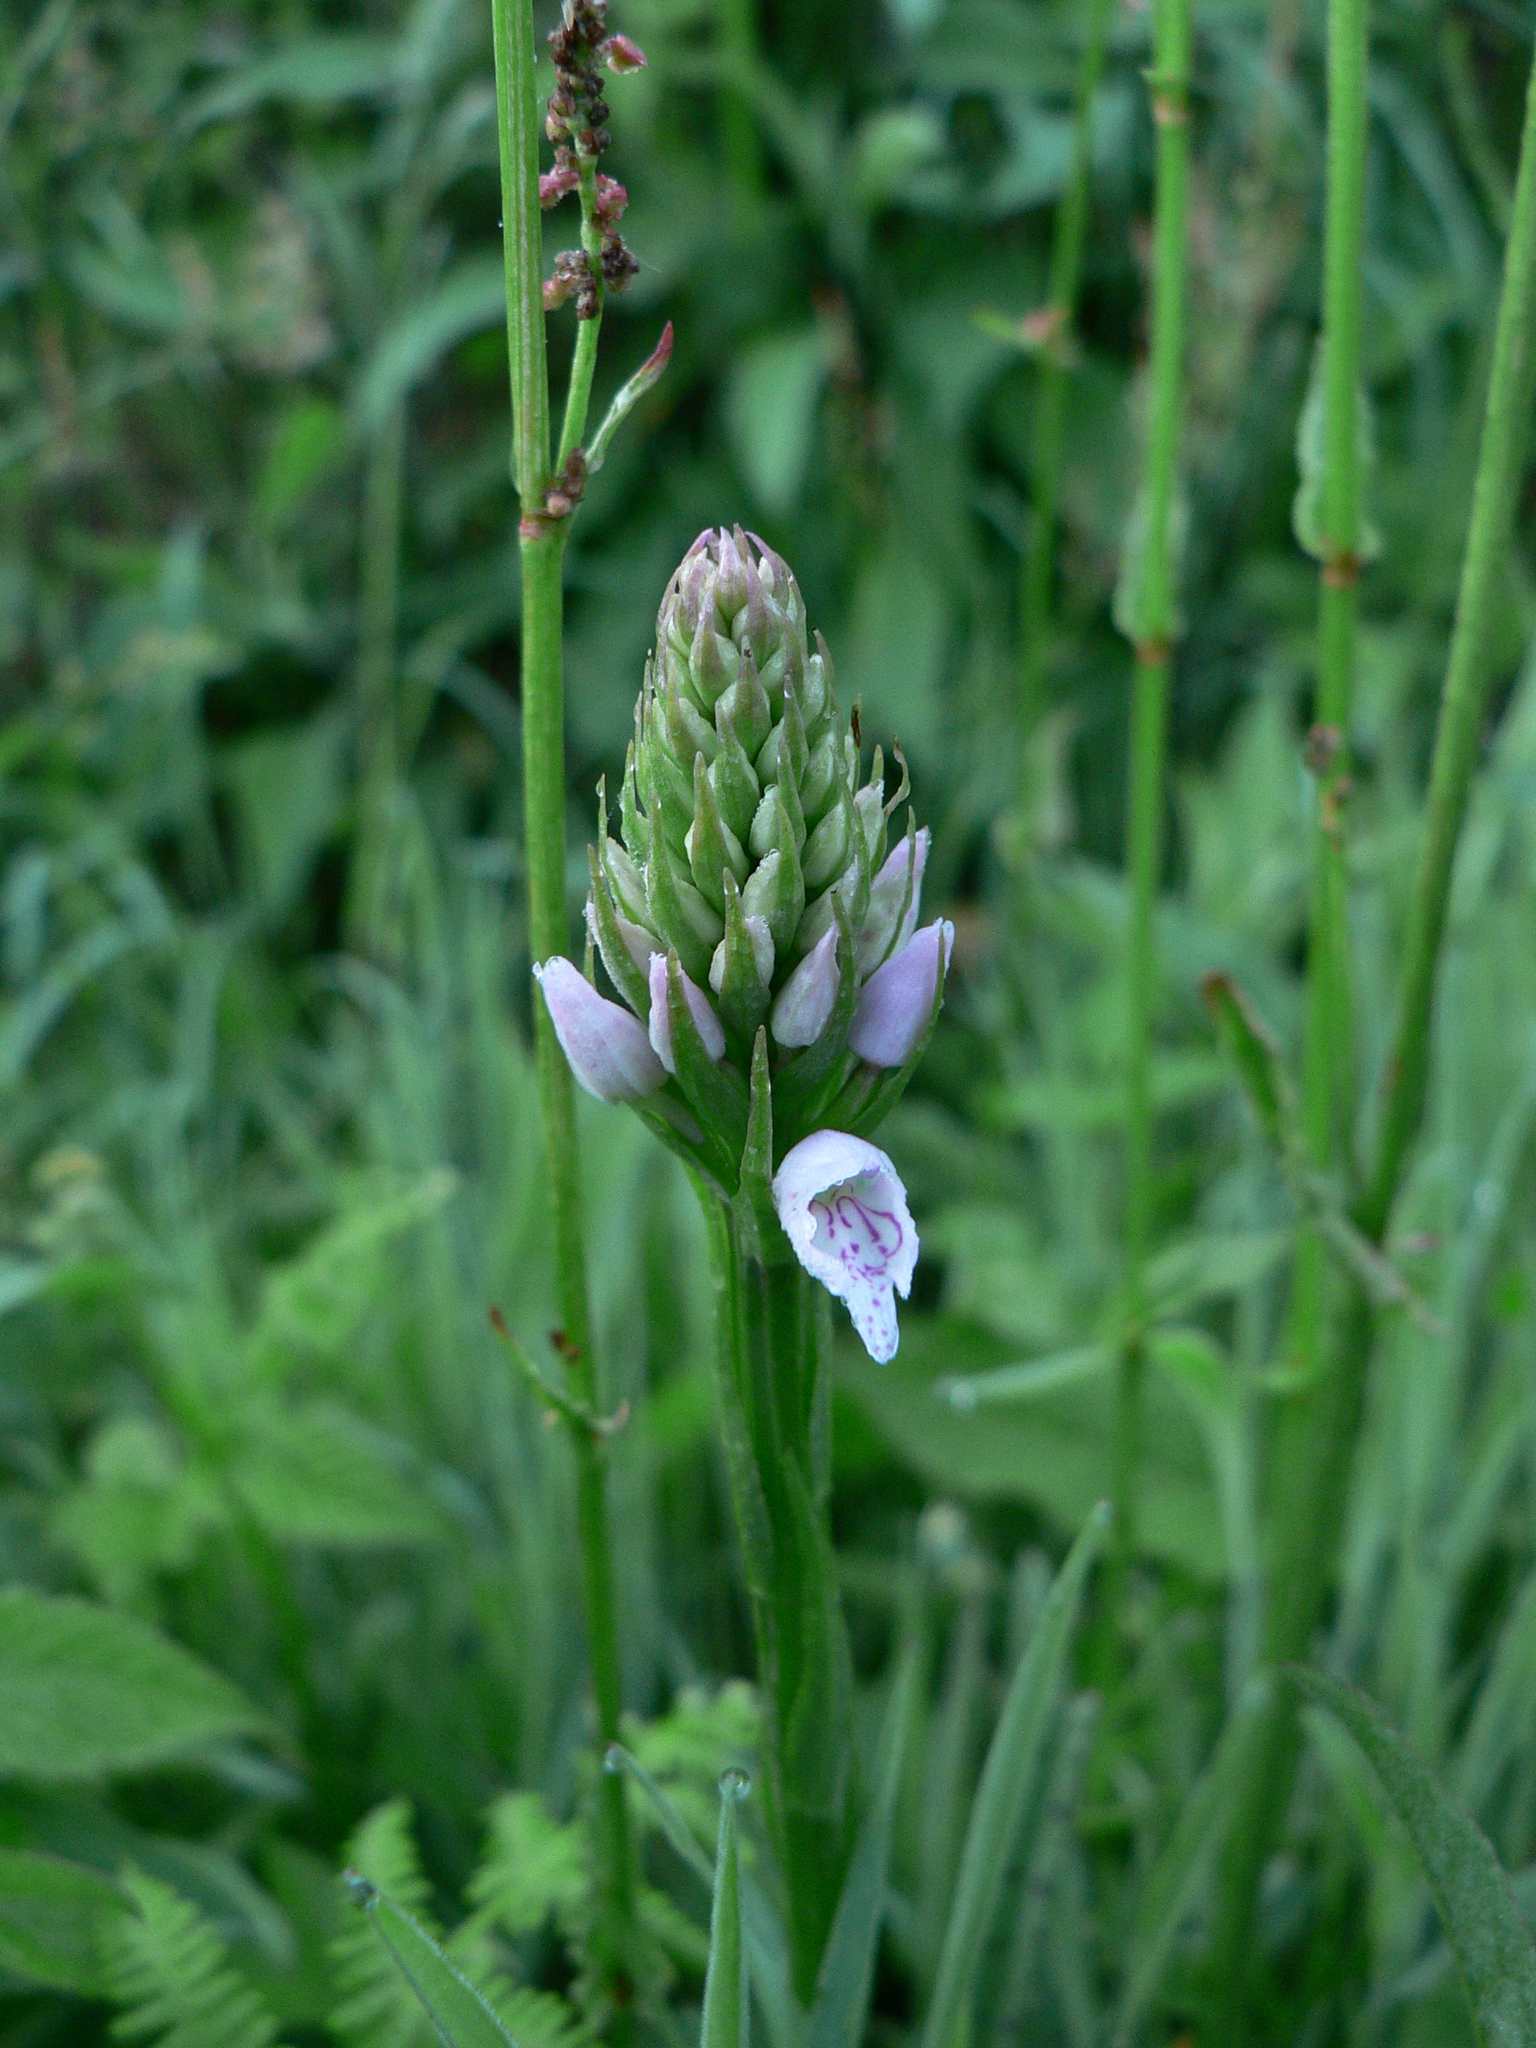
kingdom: Plantae
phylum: Tracheophyta
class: Liliopsida
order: Asparagales
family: Orchidaceae
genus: Dactylorhiza
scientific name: Dactylorhiza maculata
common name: Heath spotted-orchid
